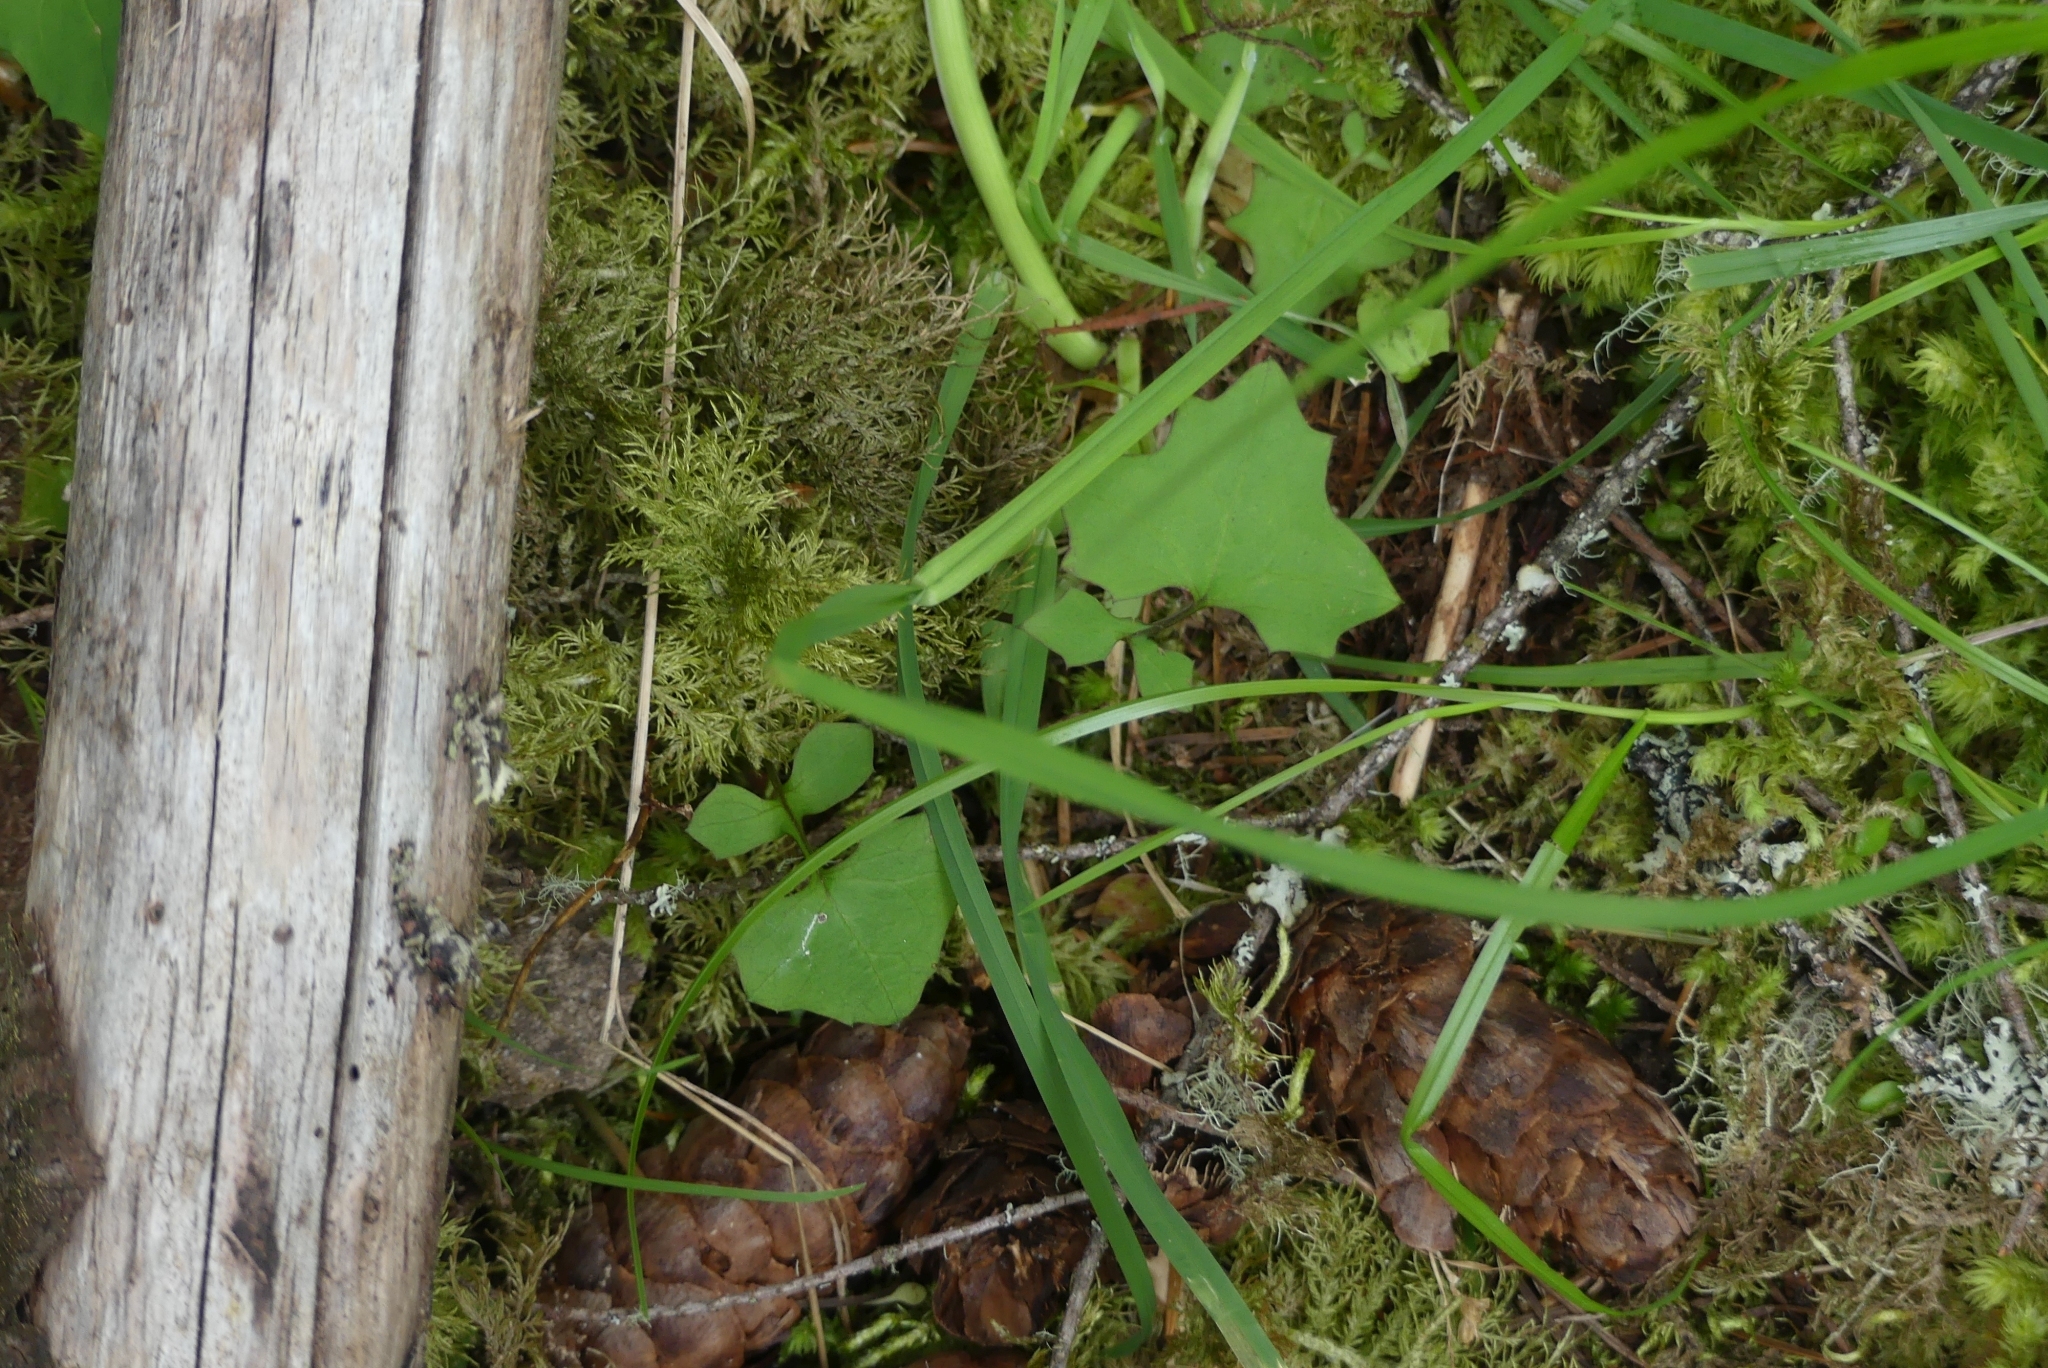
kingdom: Plantae
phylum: Tracheophyta
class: Magnoliopsida
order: Asterales
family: Asteraceae
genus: Mycelis
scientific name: Mycelis muralis
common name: Wall lettuce
